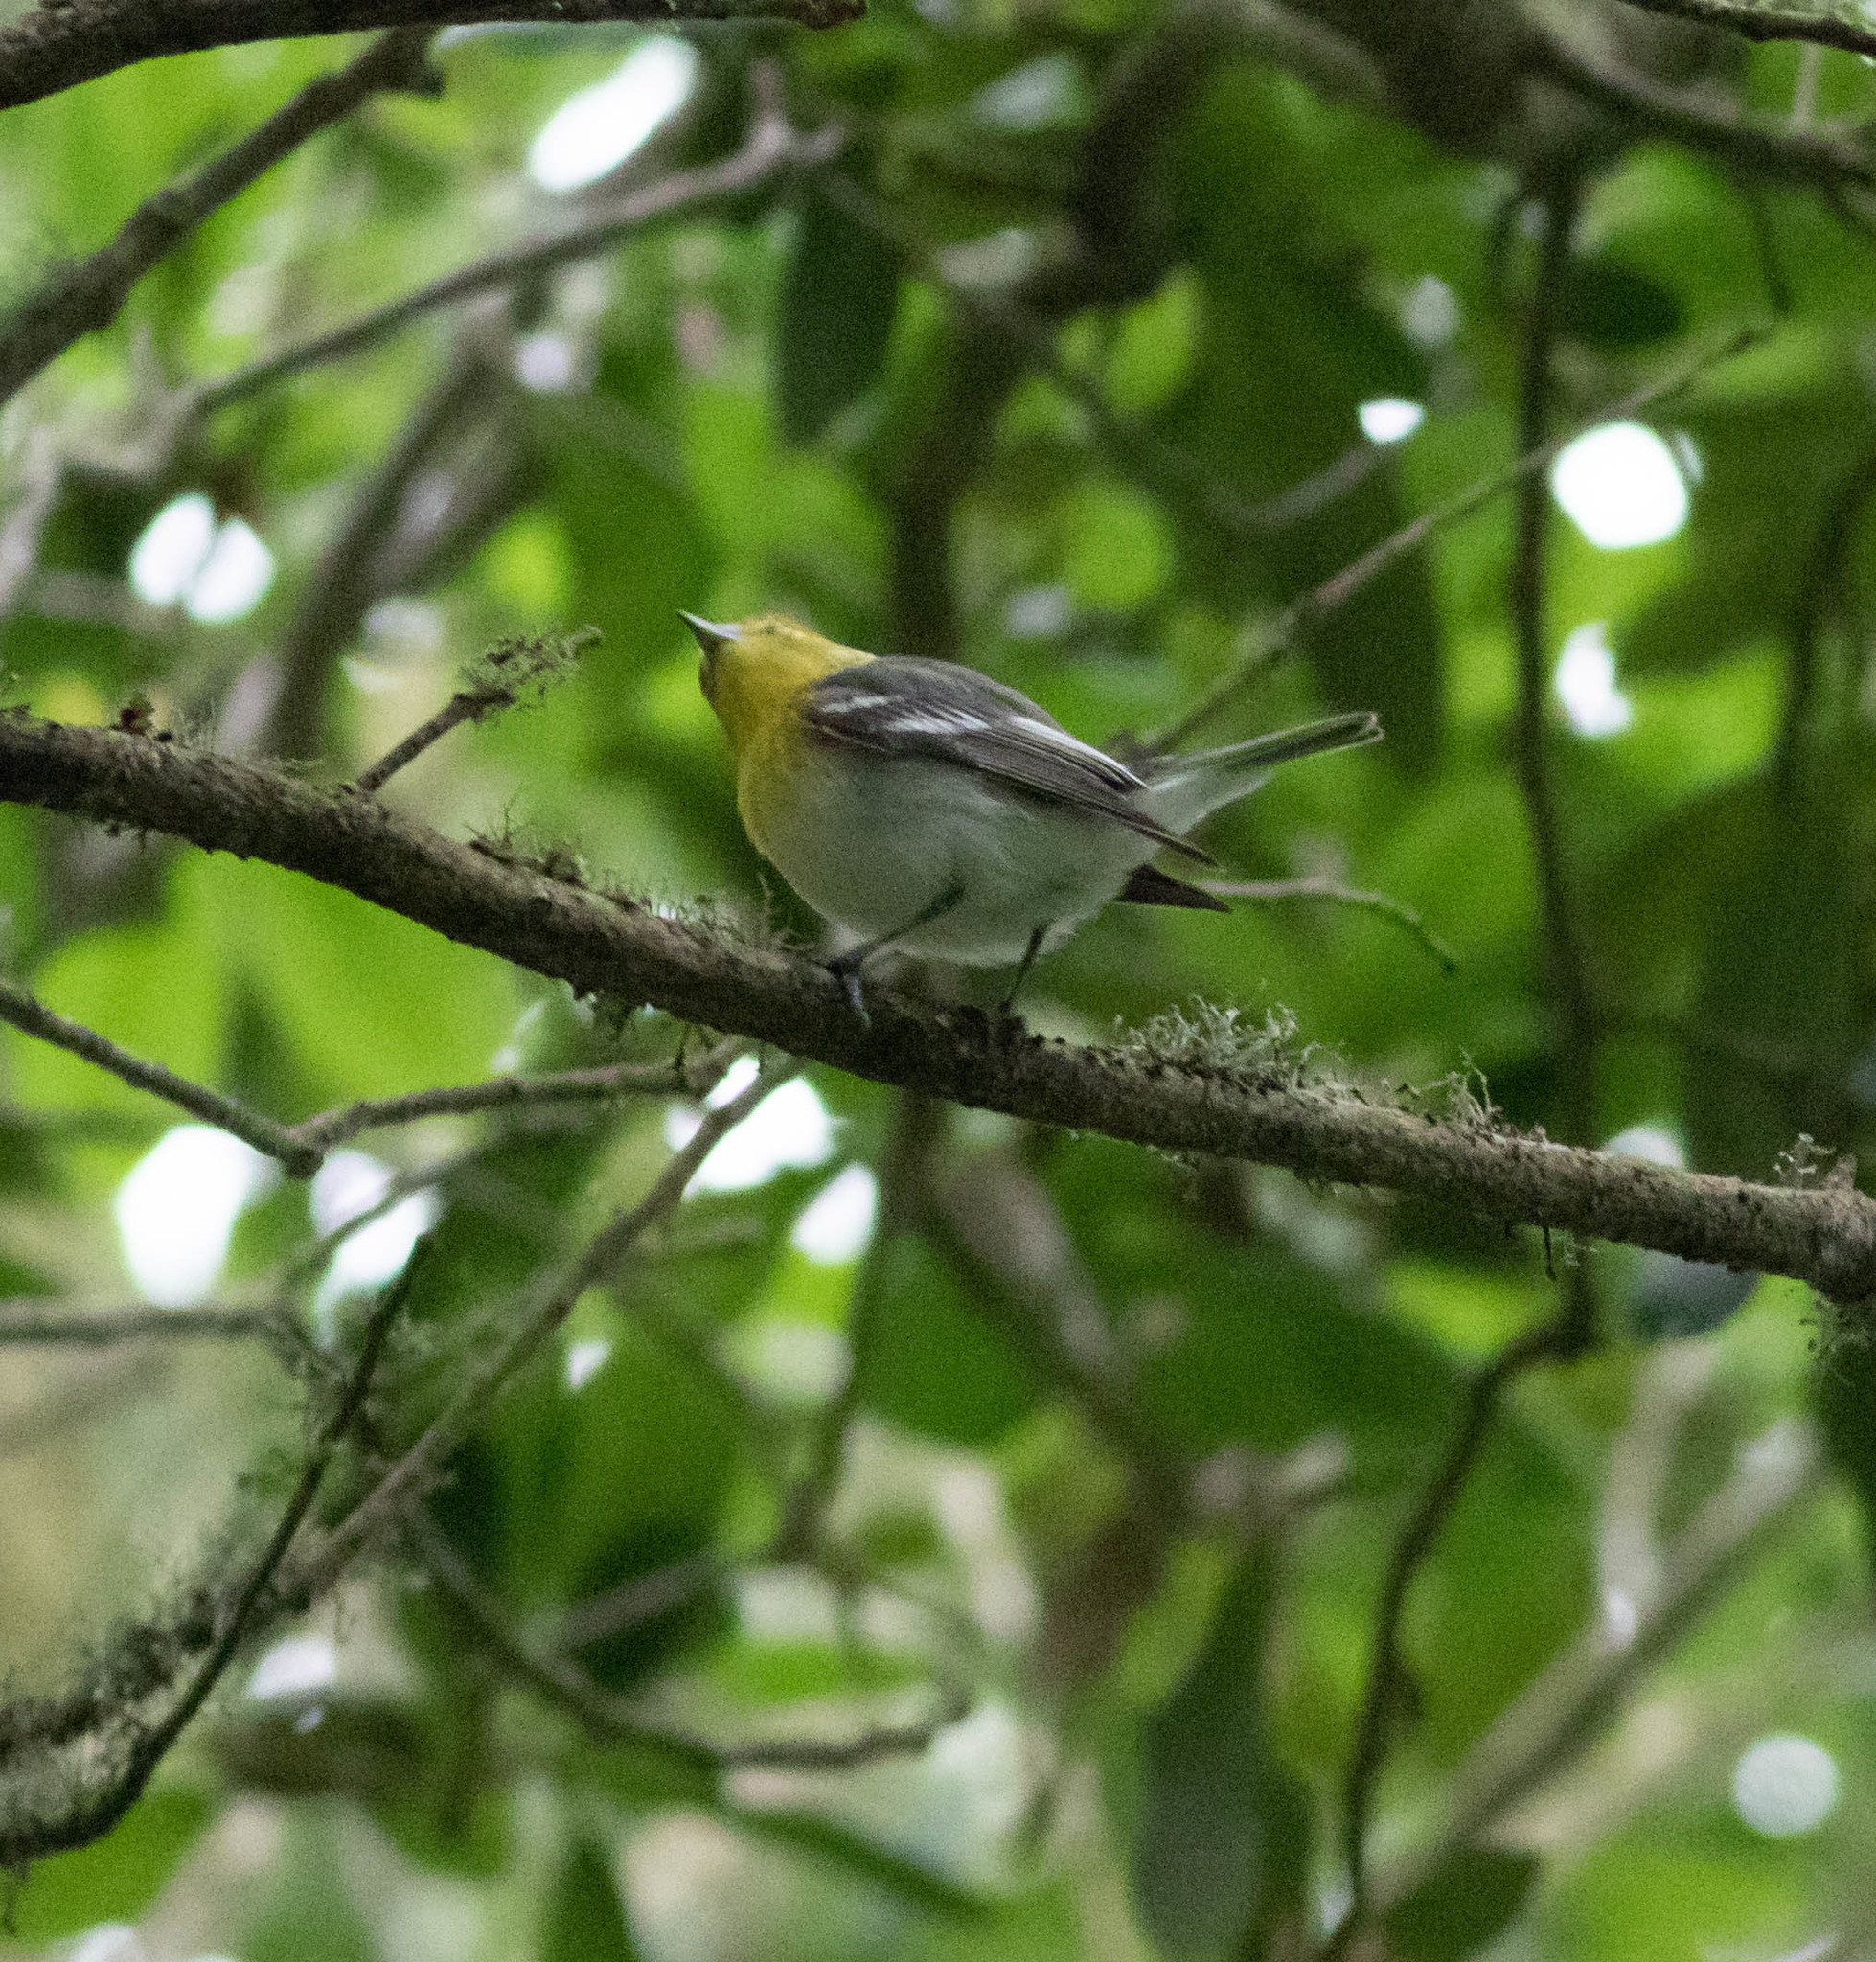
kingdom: Animalia
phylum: Chordata
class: Aves
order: Passeriformes
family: Vireonidae
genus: Vireo
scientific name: Vireo flavifrons
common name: Yellow-throated vireo
